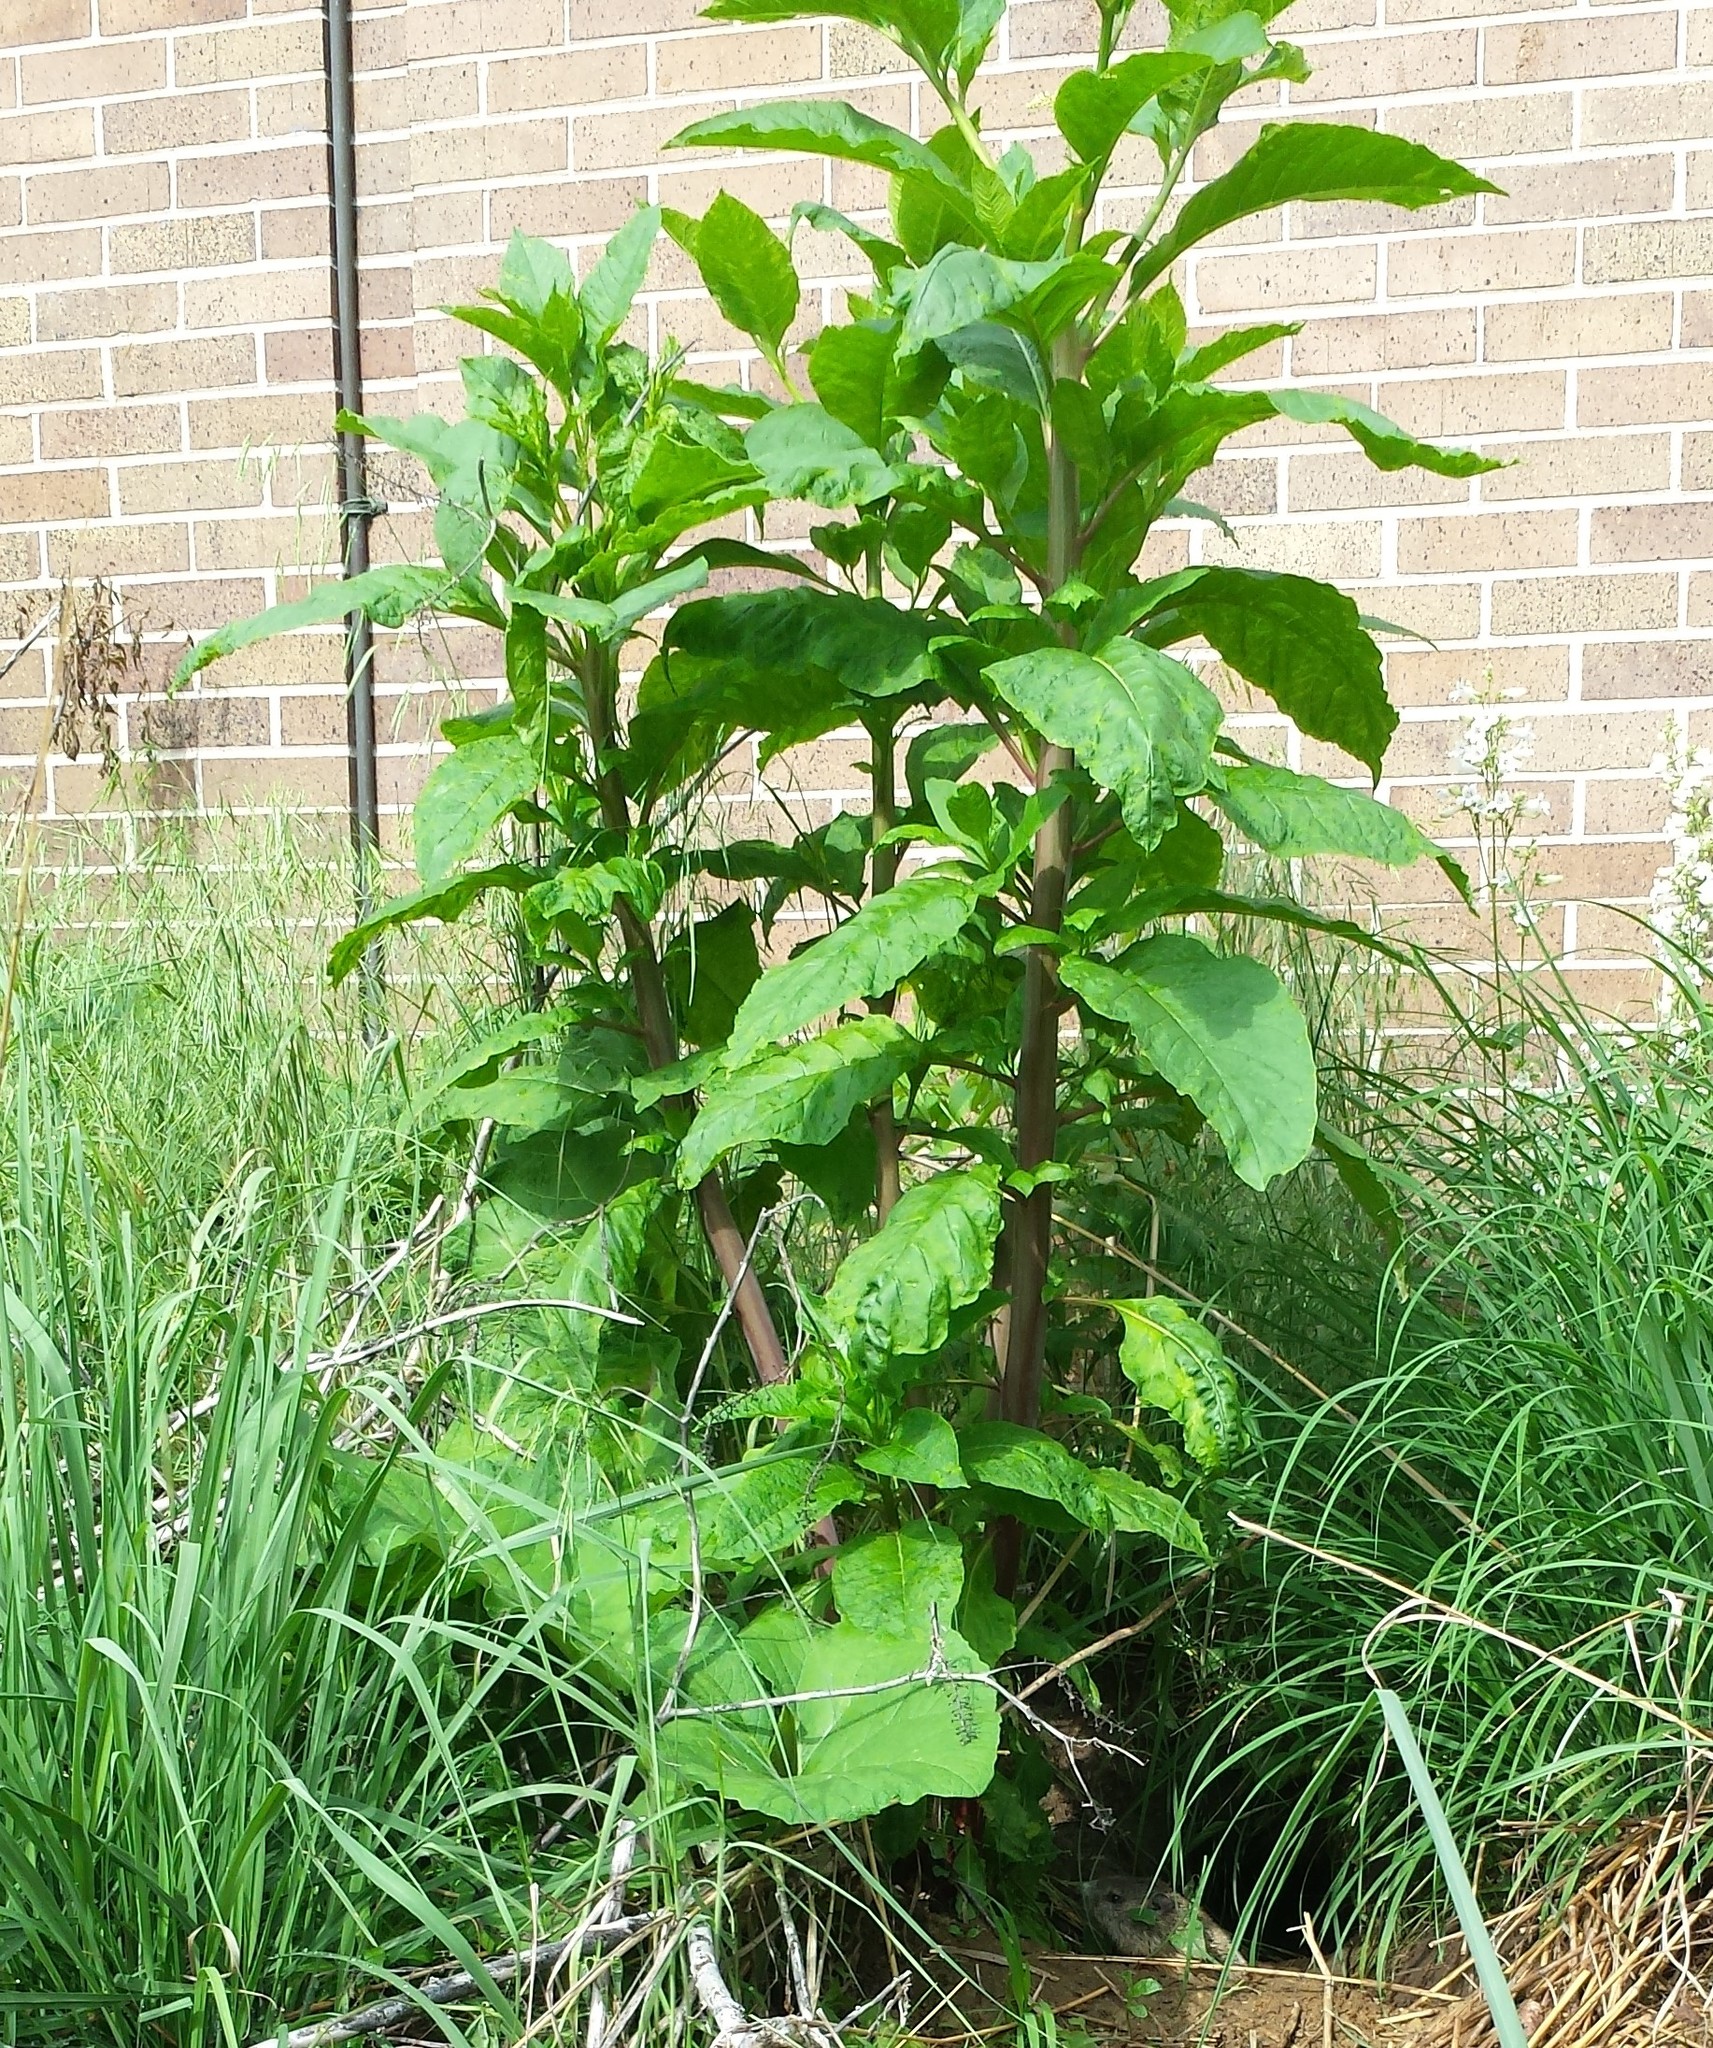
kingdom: Plantae
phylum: Tracheophyta
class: Magnoliopsida
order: Caryophyllales
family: Phytolaccaceae
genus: Phytolacca
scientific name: Phytolacca americana
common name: American pokeweed
